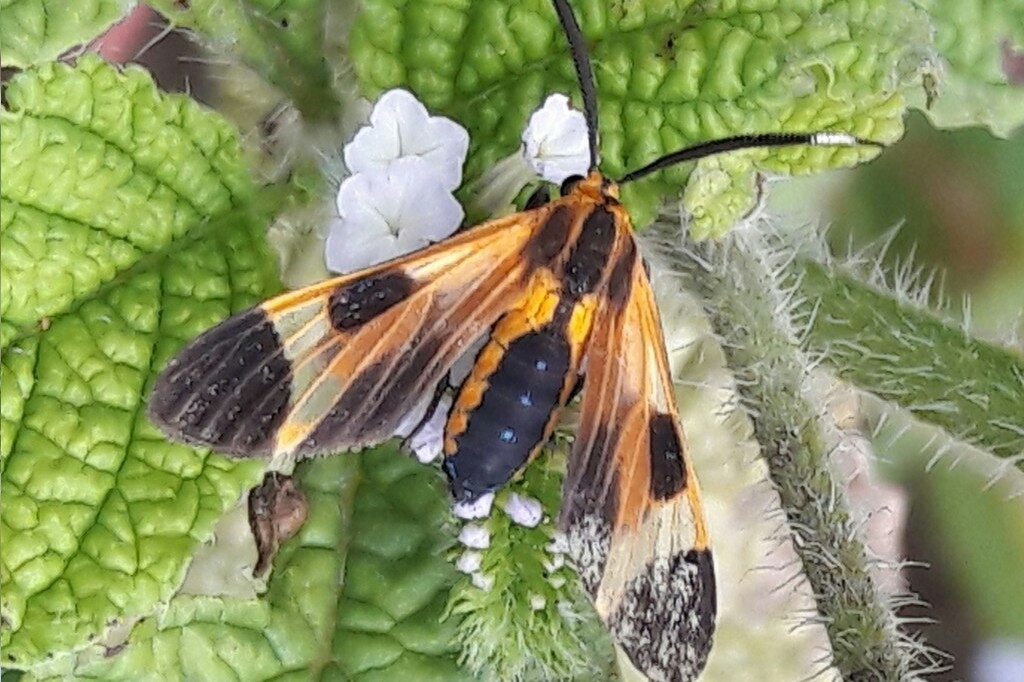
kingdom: Animalia
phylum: Arthropoda
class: Insecta
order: Lepidoptera
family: Erebidae
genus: Dycladia
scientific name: Dycladia lucetius
